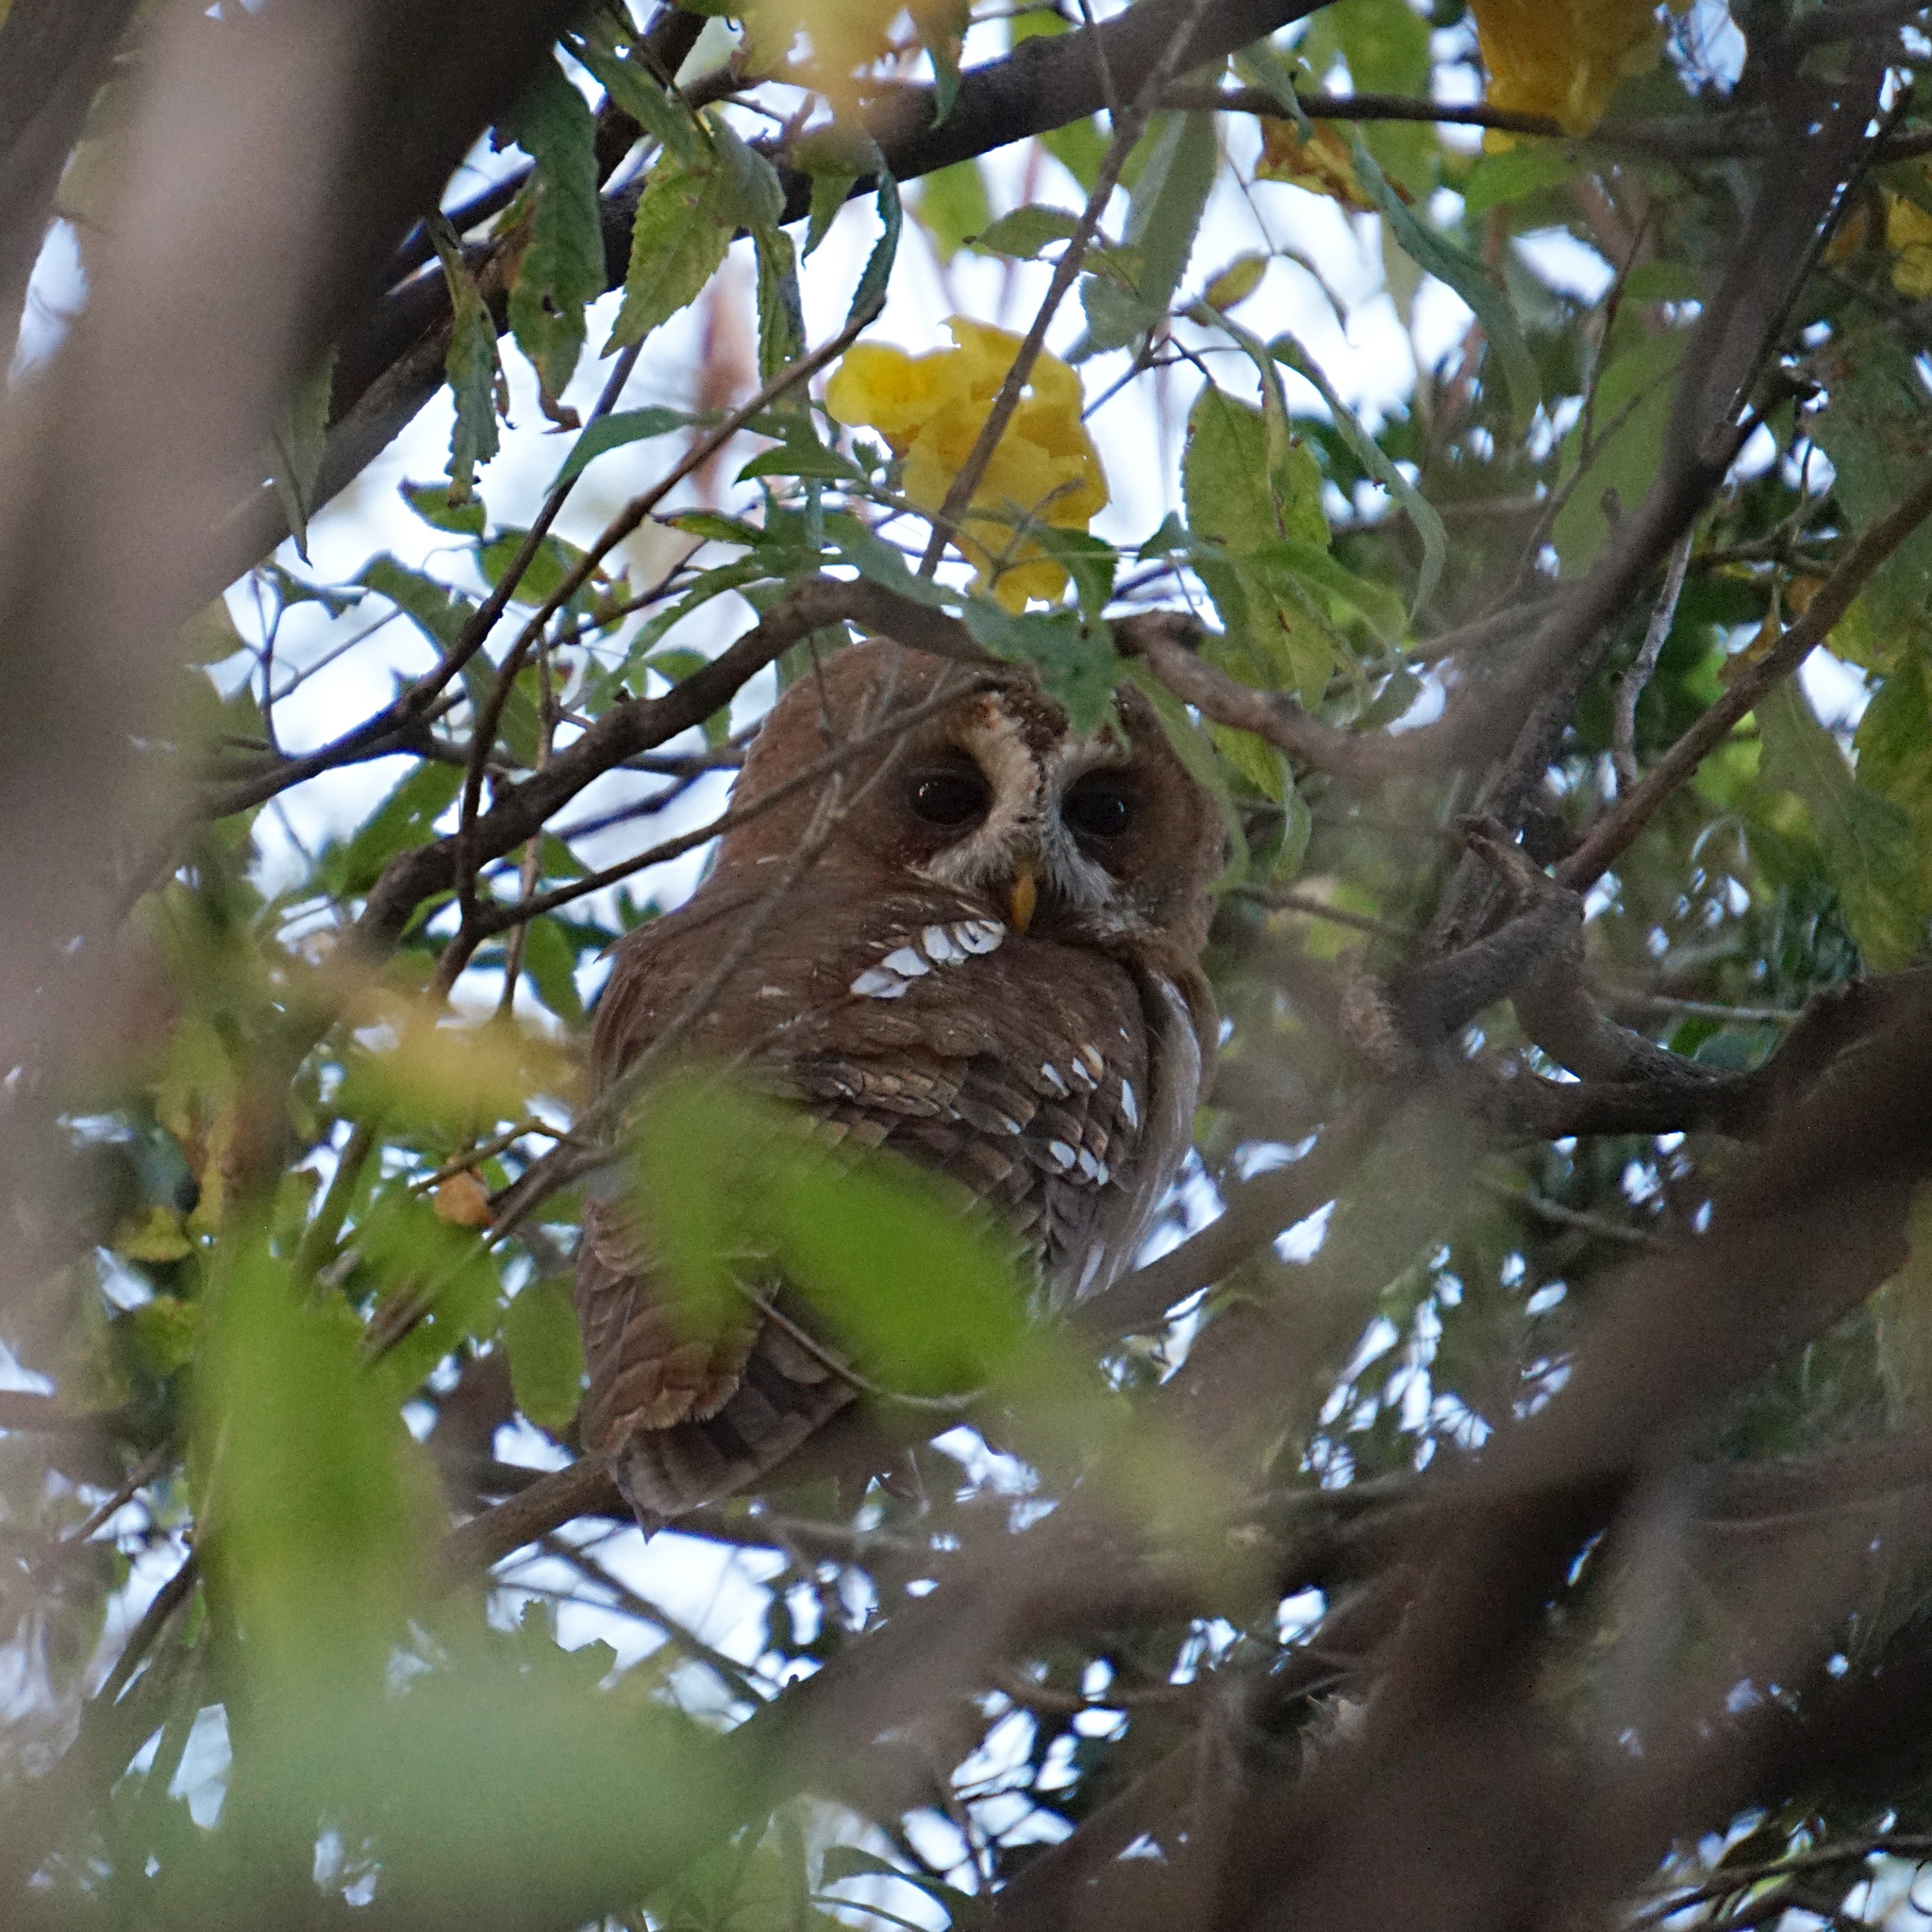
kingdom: Animalia
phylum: Chordata
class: Aves
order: Strigiformes
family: Strigidae
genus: Strix
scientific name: Strix woodfordii
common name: African wood owl
